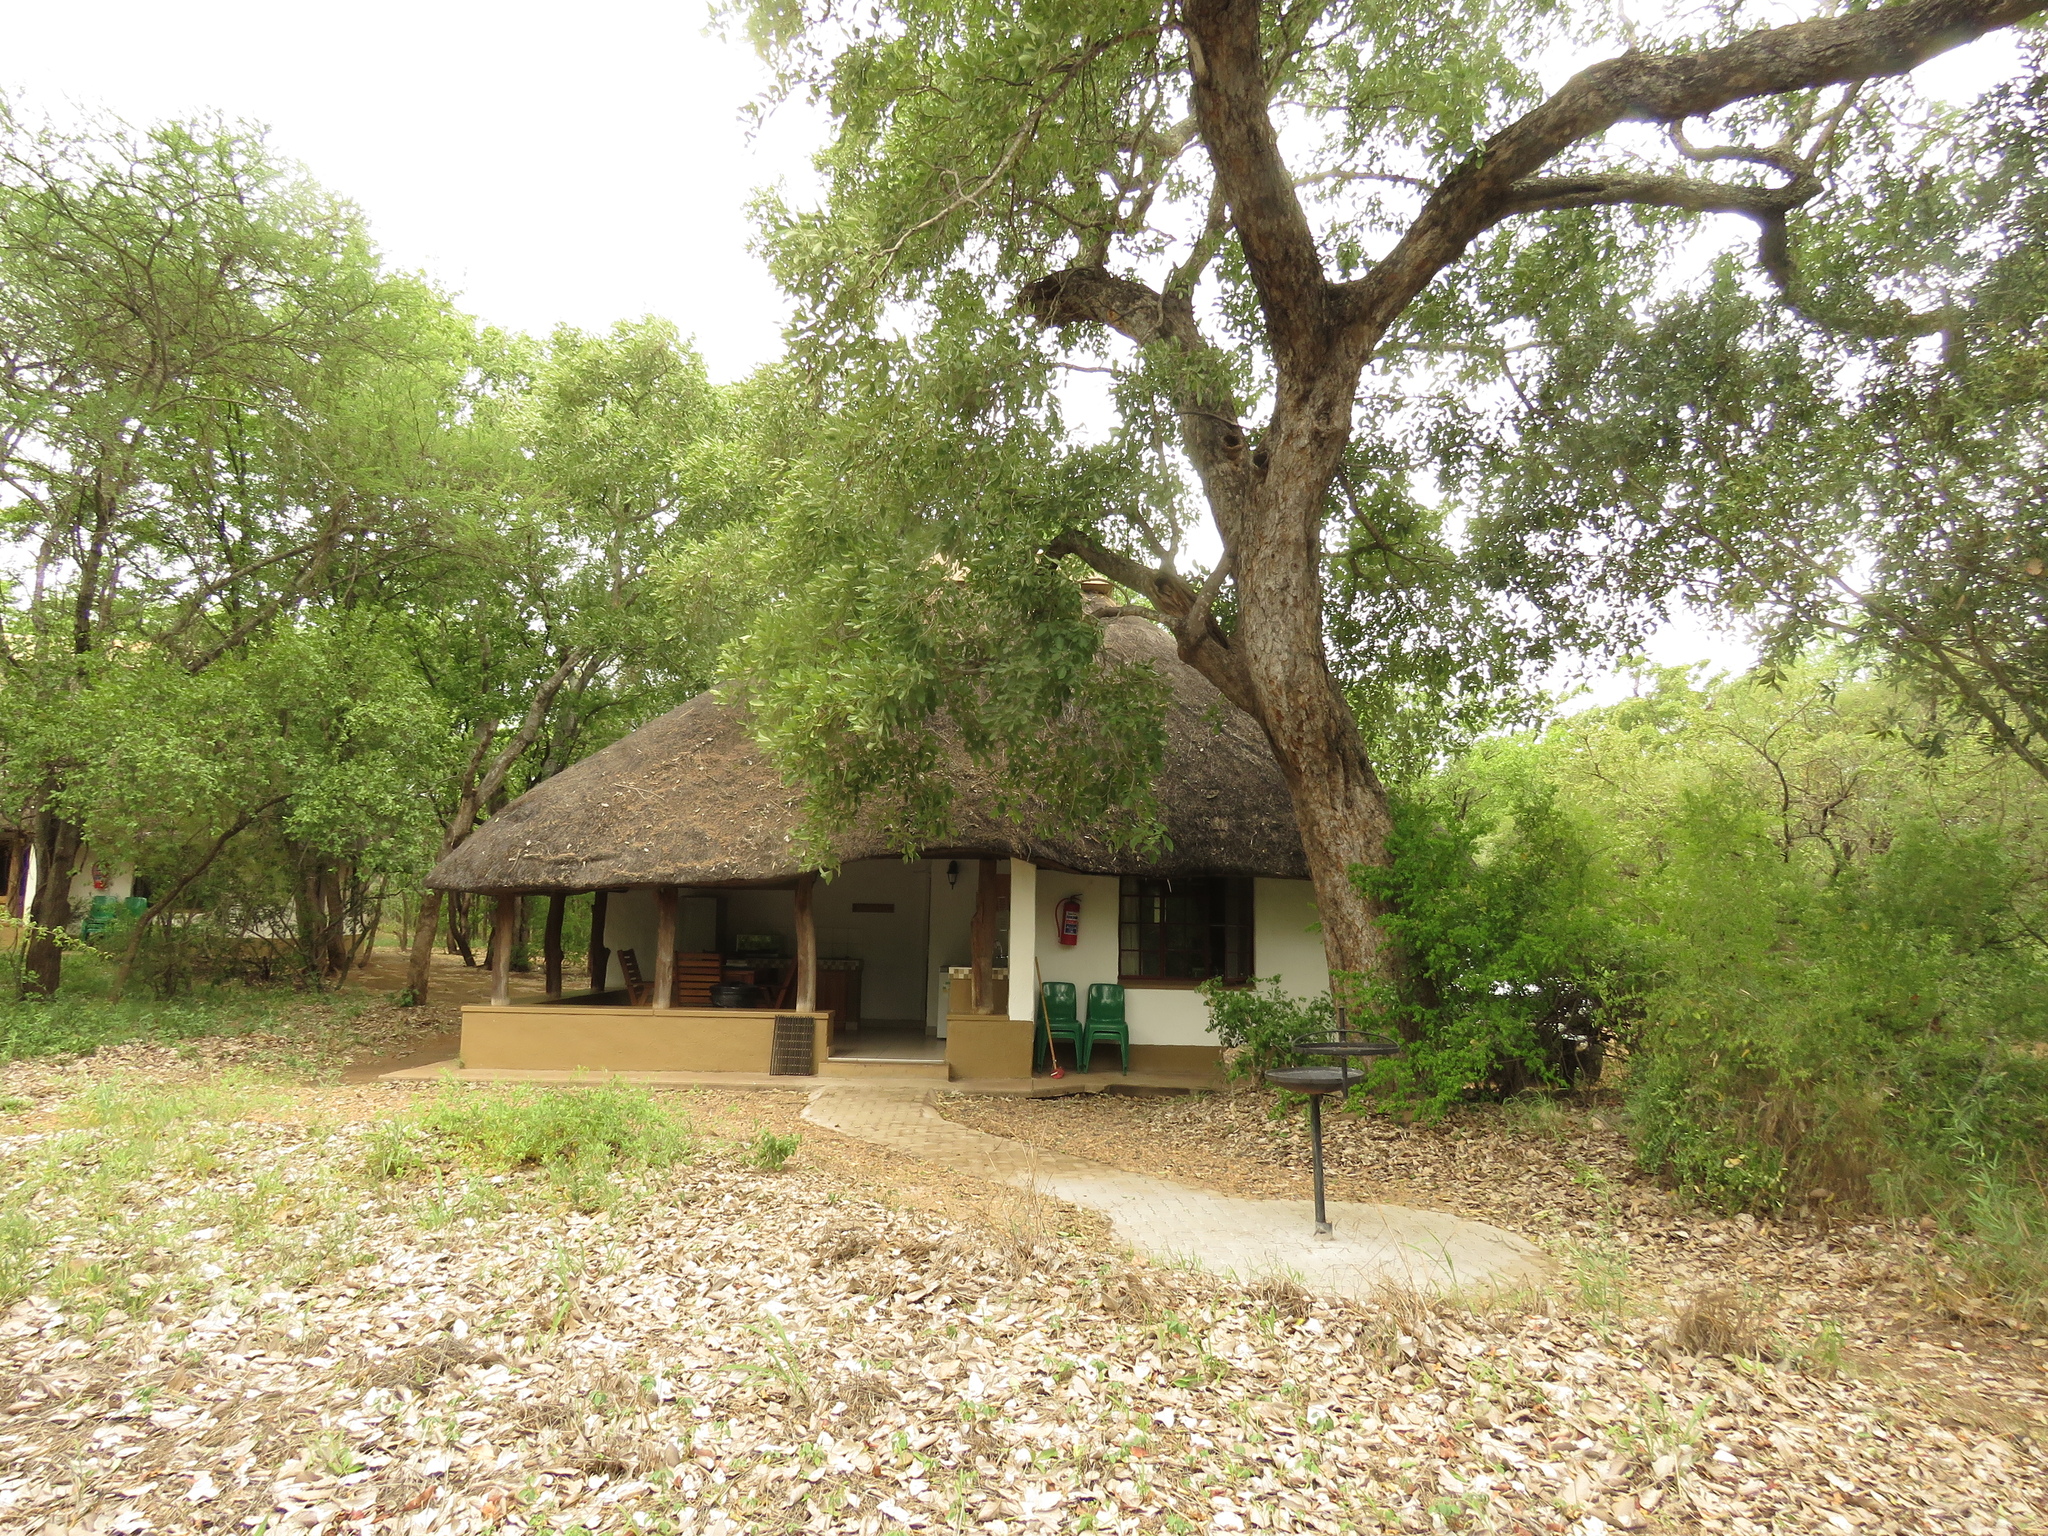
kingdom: Plantae
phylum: Tracheophyta
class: Magnoliopsida
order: Fabales
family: Fabaceae
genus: Philenoptera
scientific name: Philenoptera violacea
